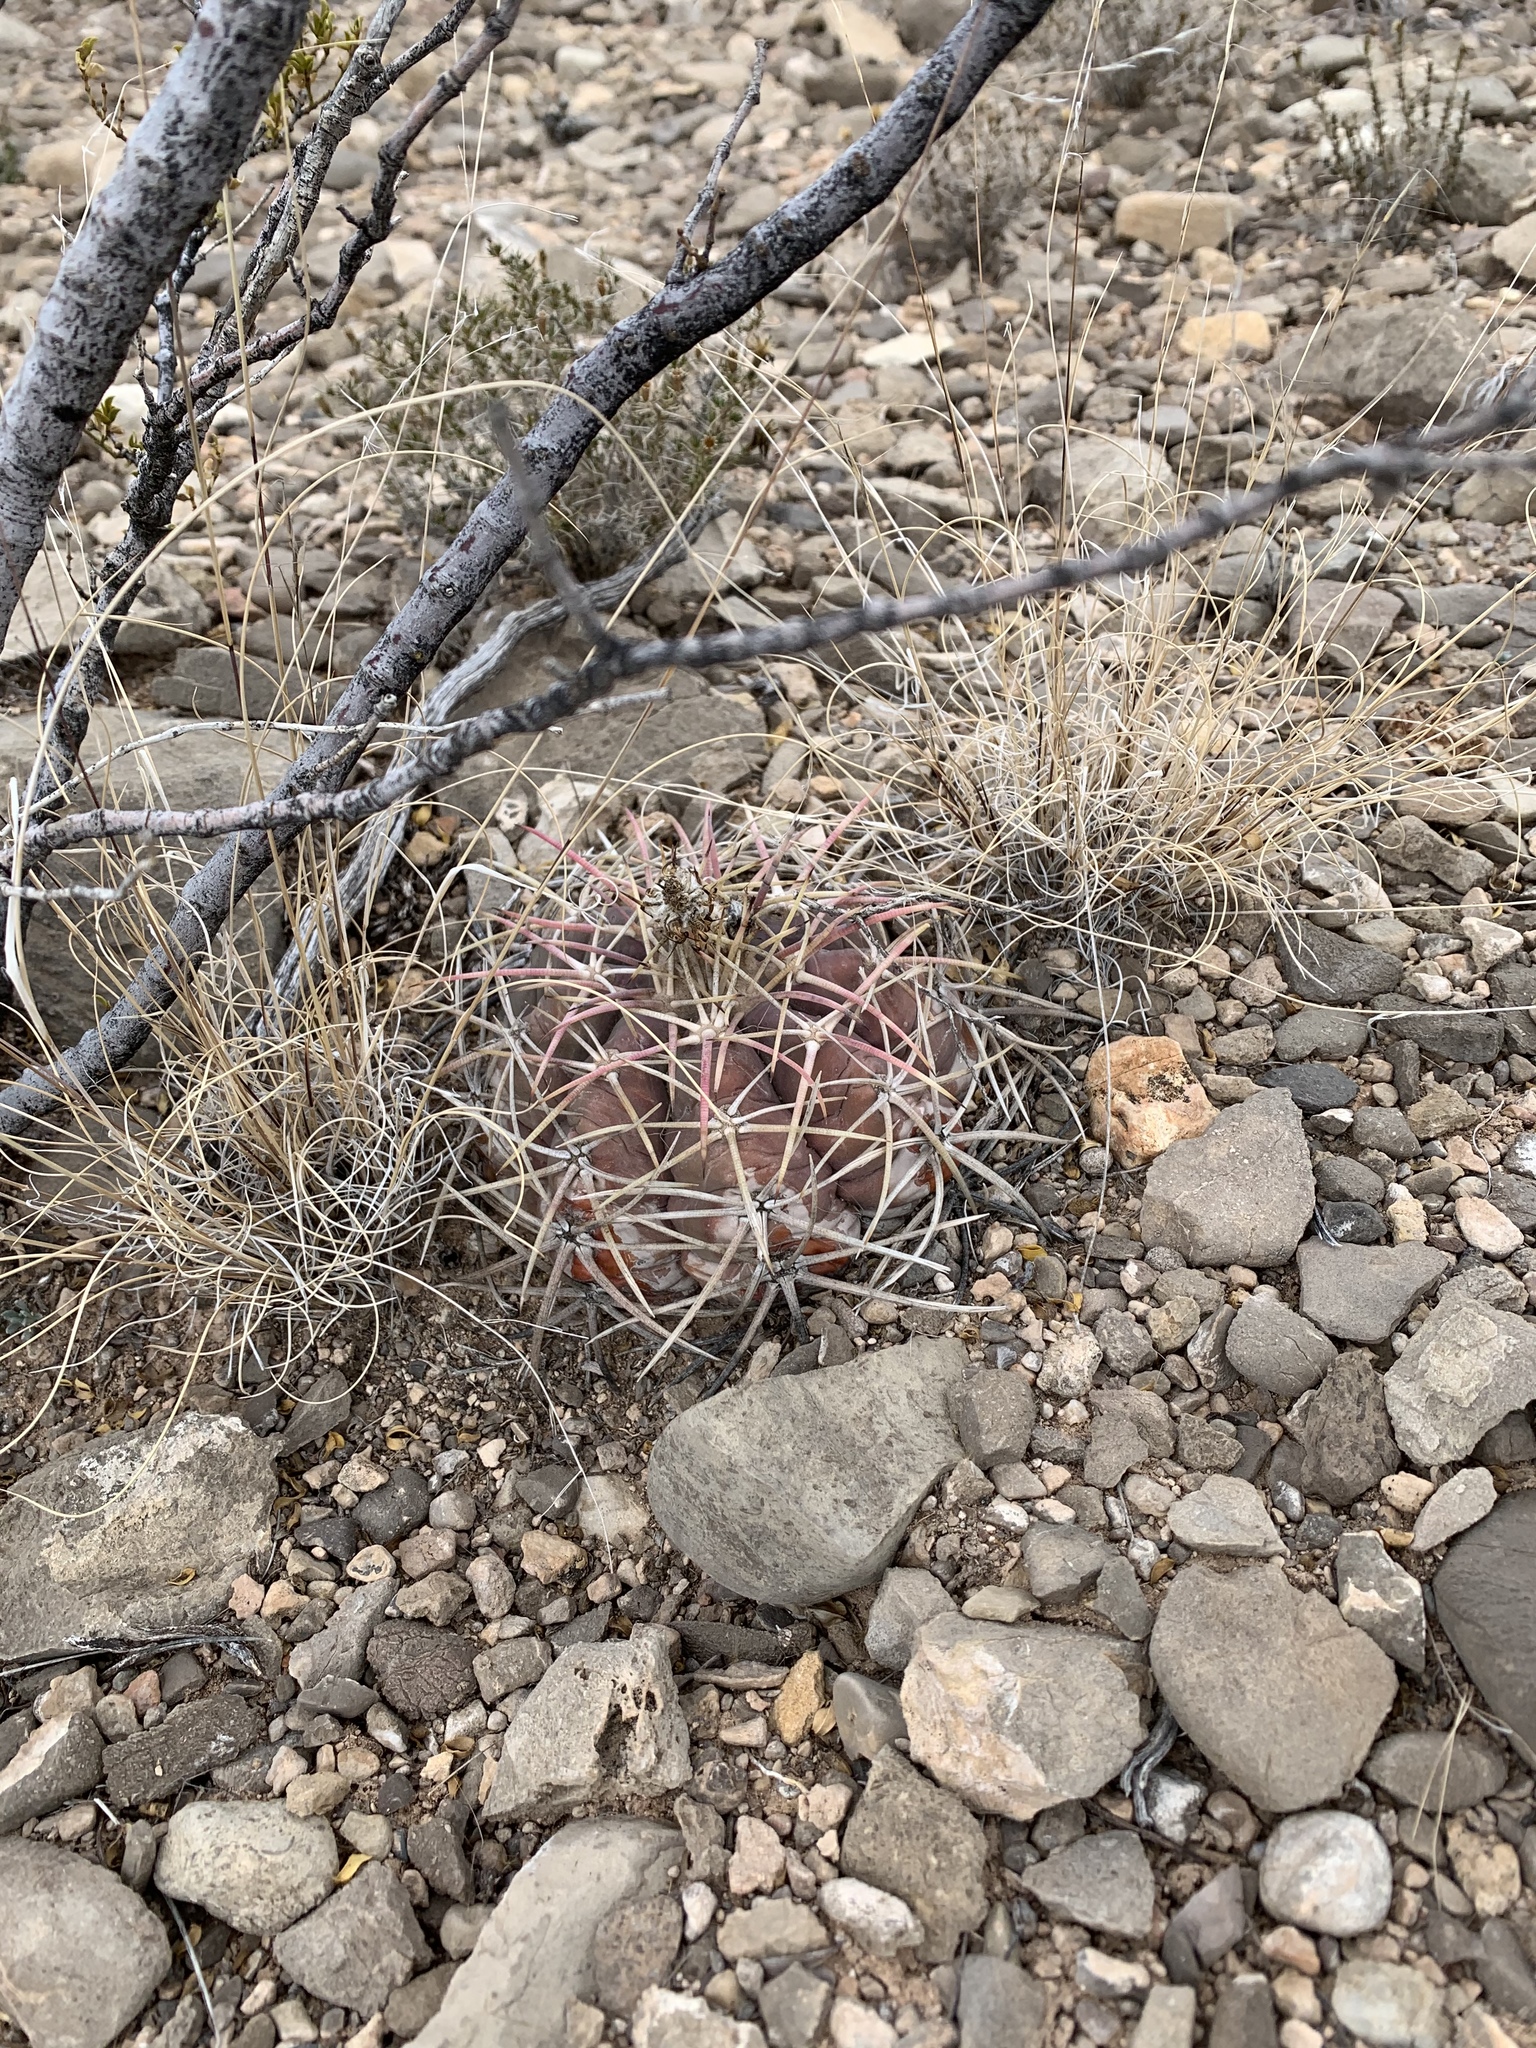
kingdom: Plantae
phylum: Tracheophyta
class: Magnoliopsida
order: Caryophyllales
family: Cactaceae
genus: Echinocactus
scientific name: Echinocactus horizonthalonius
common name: Devilshead
